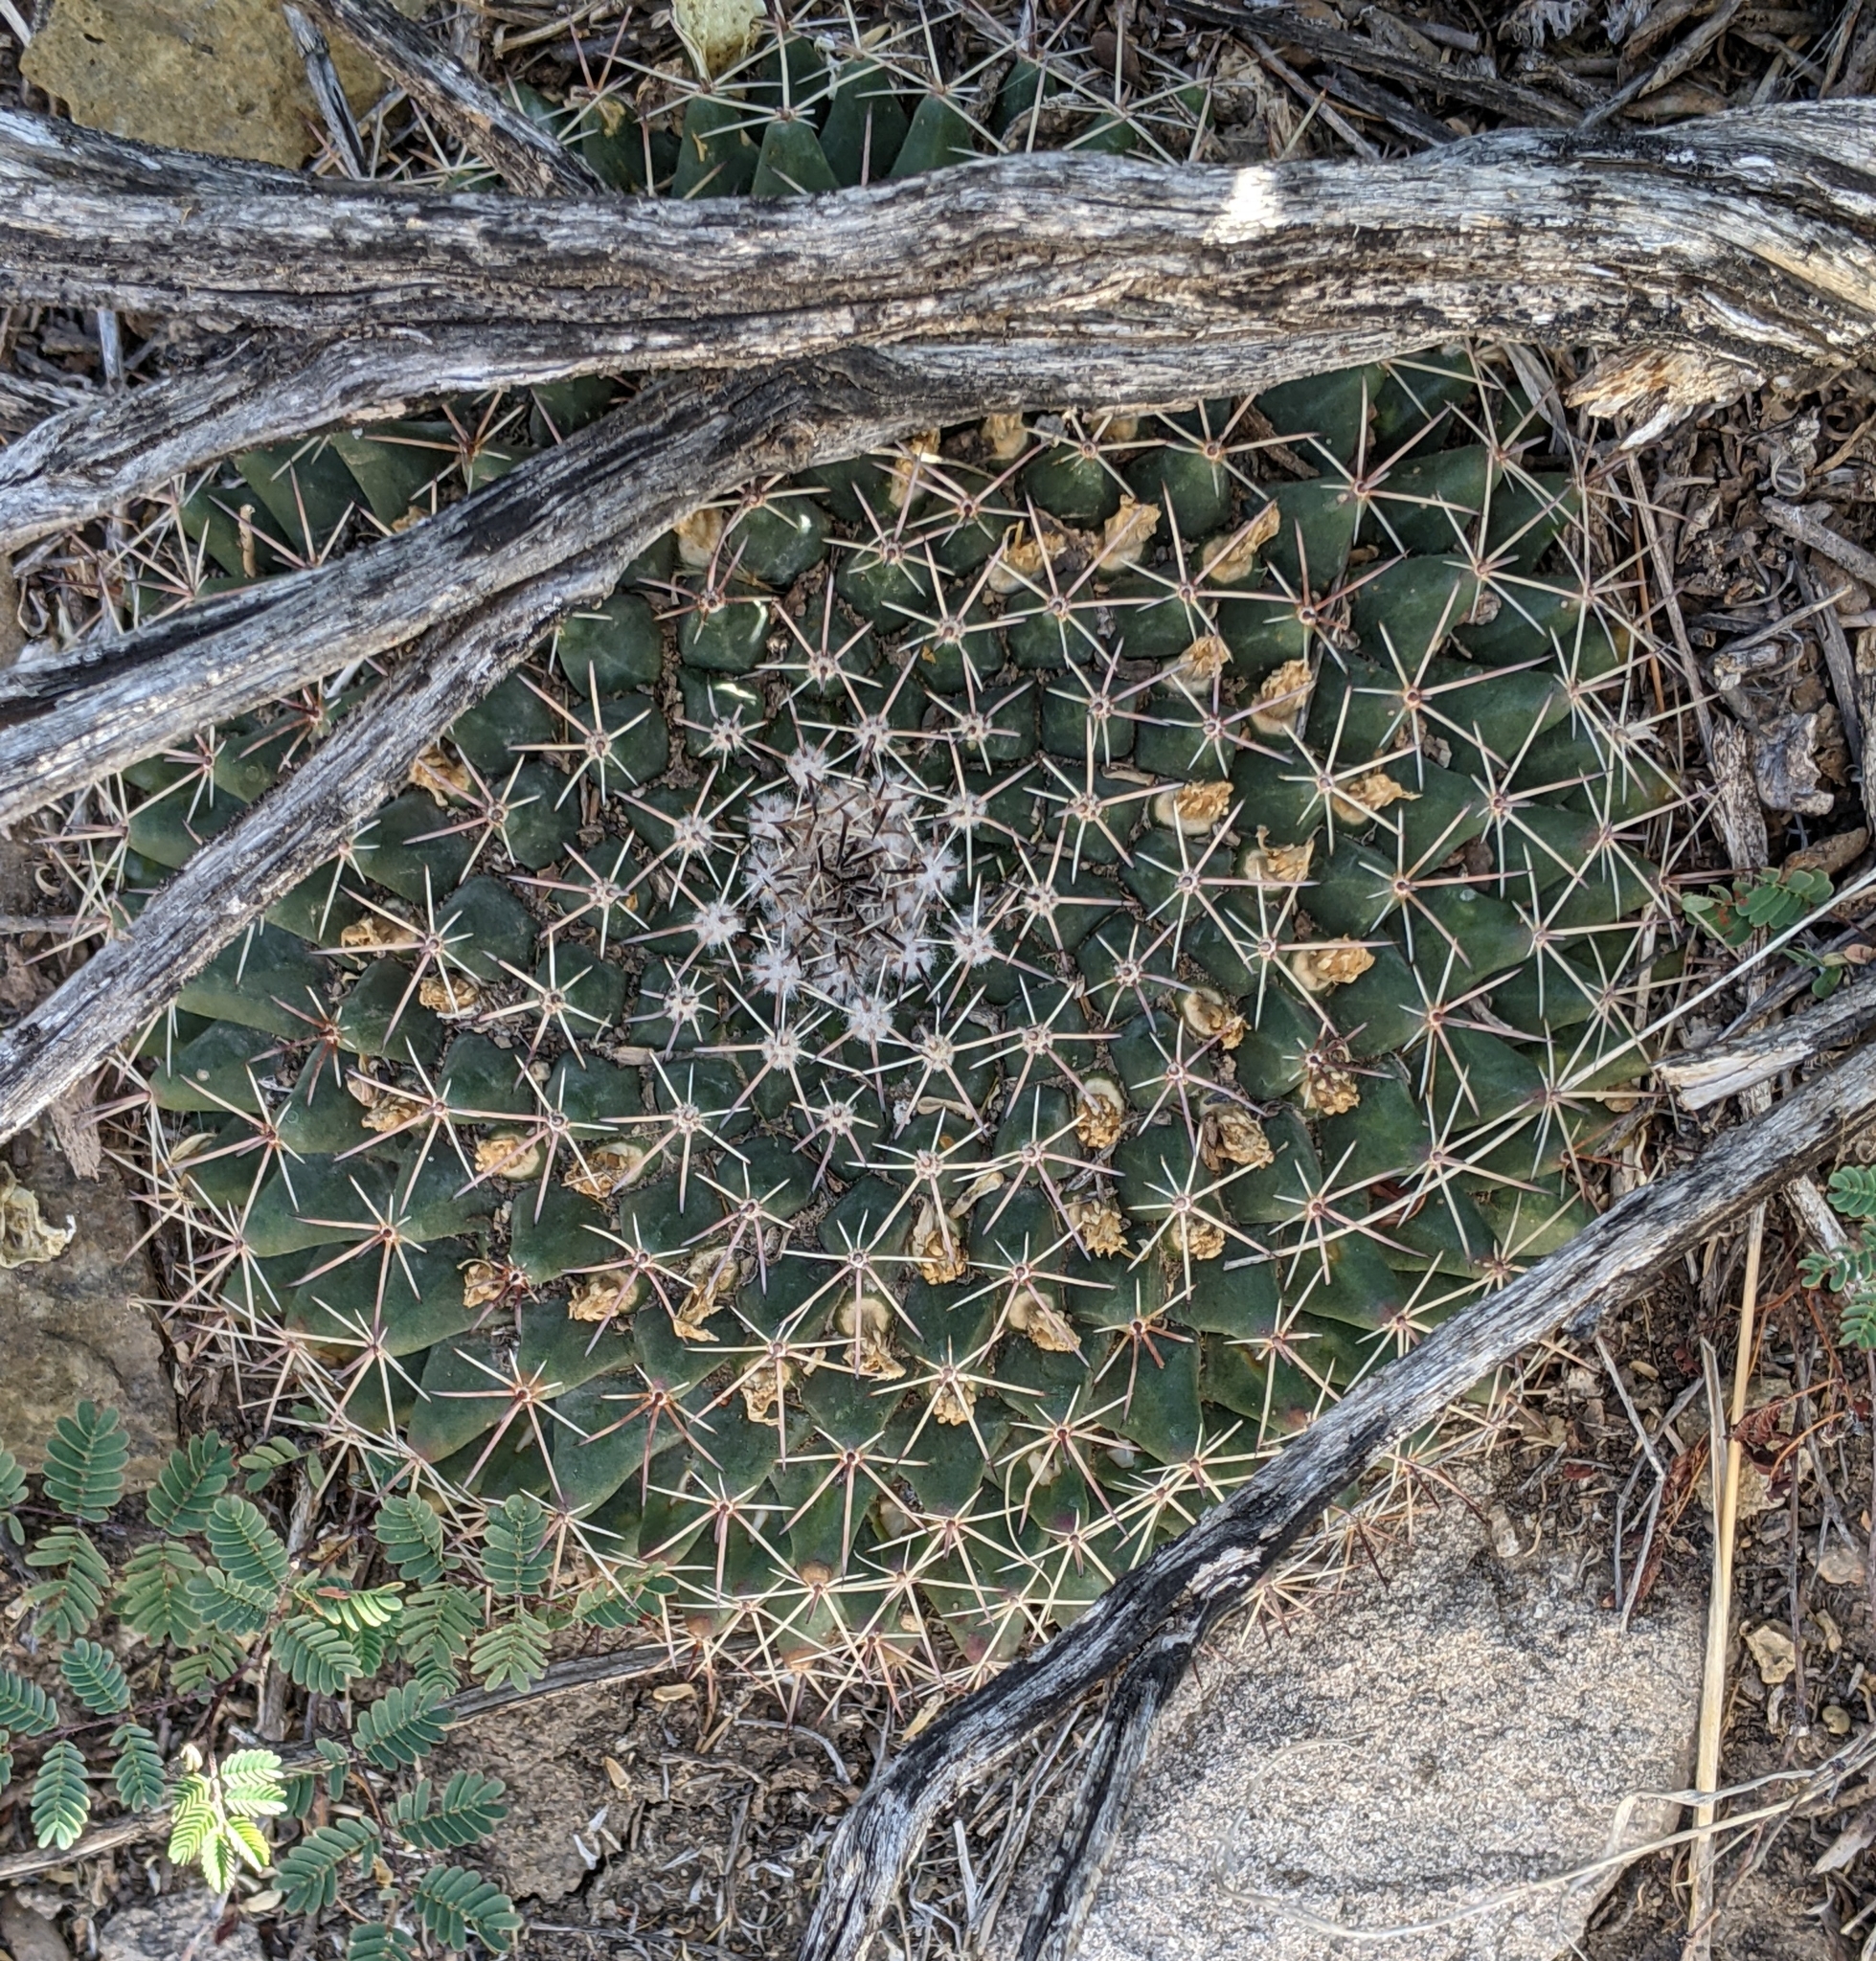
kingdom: Plantae
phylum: Tracheophyta
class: Magnoliopsida
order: Caryophyllales
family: Cactaceae
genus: Mammillaria
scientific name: Mammillaria heyderi
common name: Little nipple cactus
